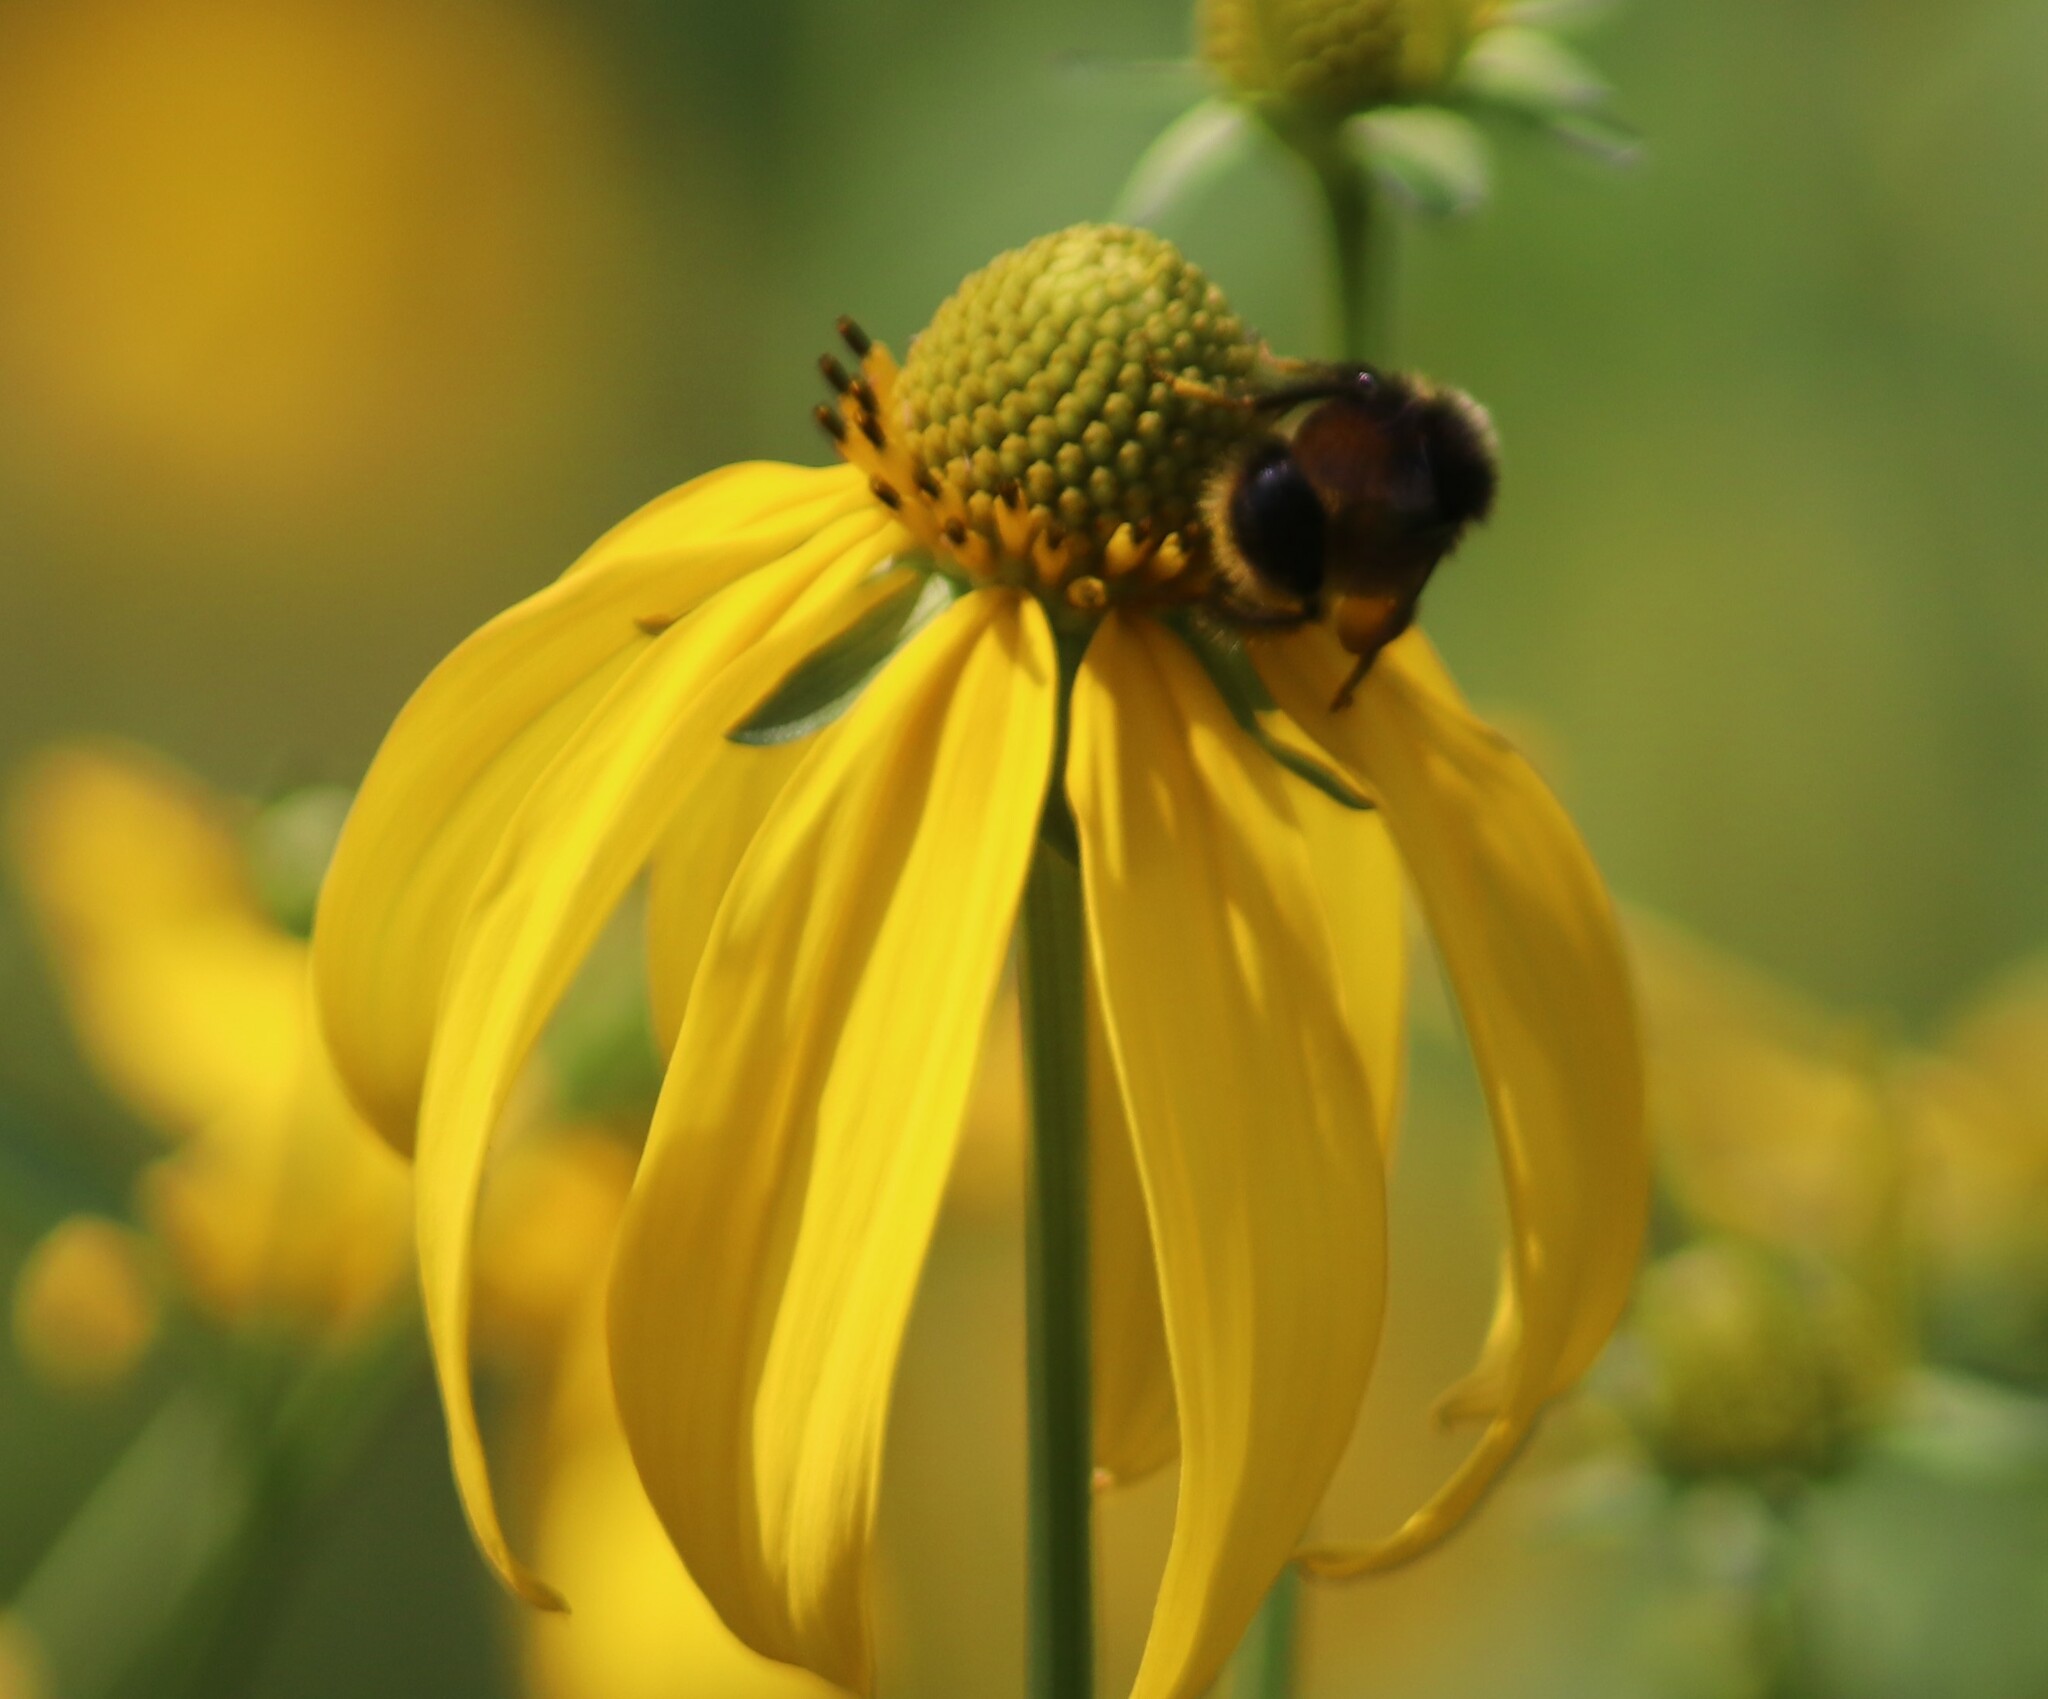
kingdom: Animalia
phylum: Arthropoda
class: Insecta
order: Hymenoptera
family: Apidae
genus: Bombus
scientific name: Bombus terricola
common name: Yellow-banded bumble bee
